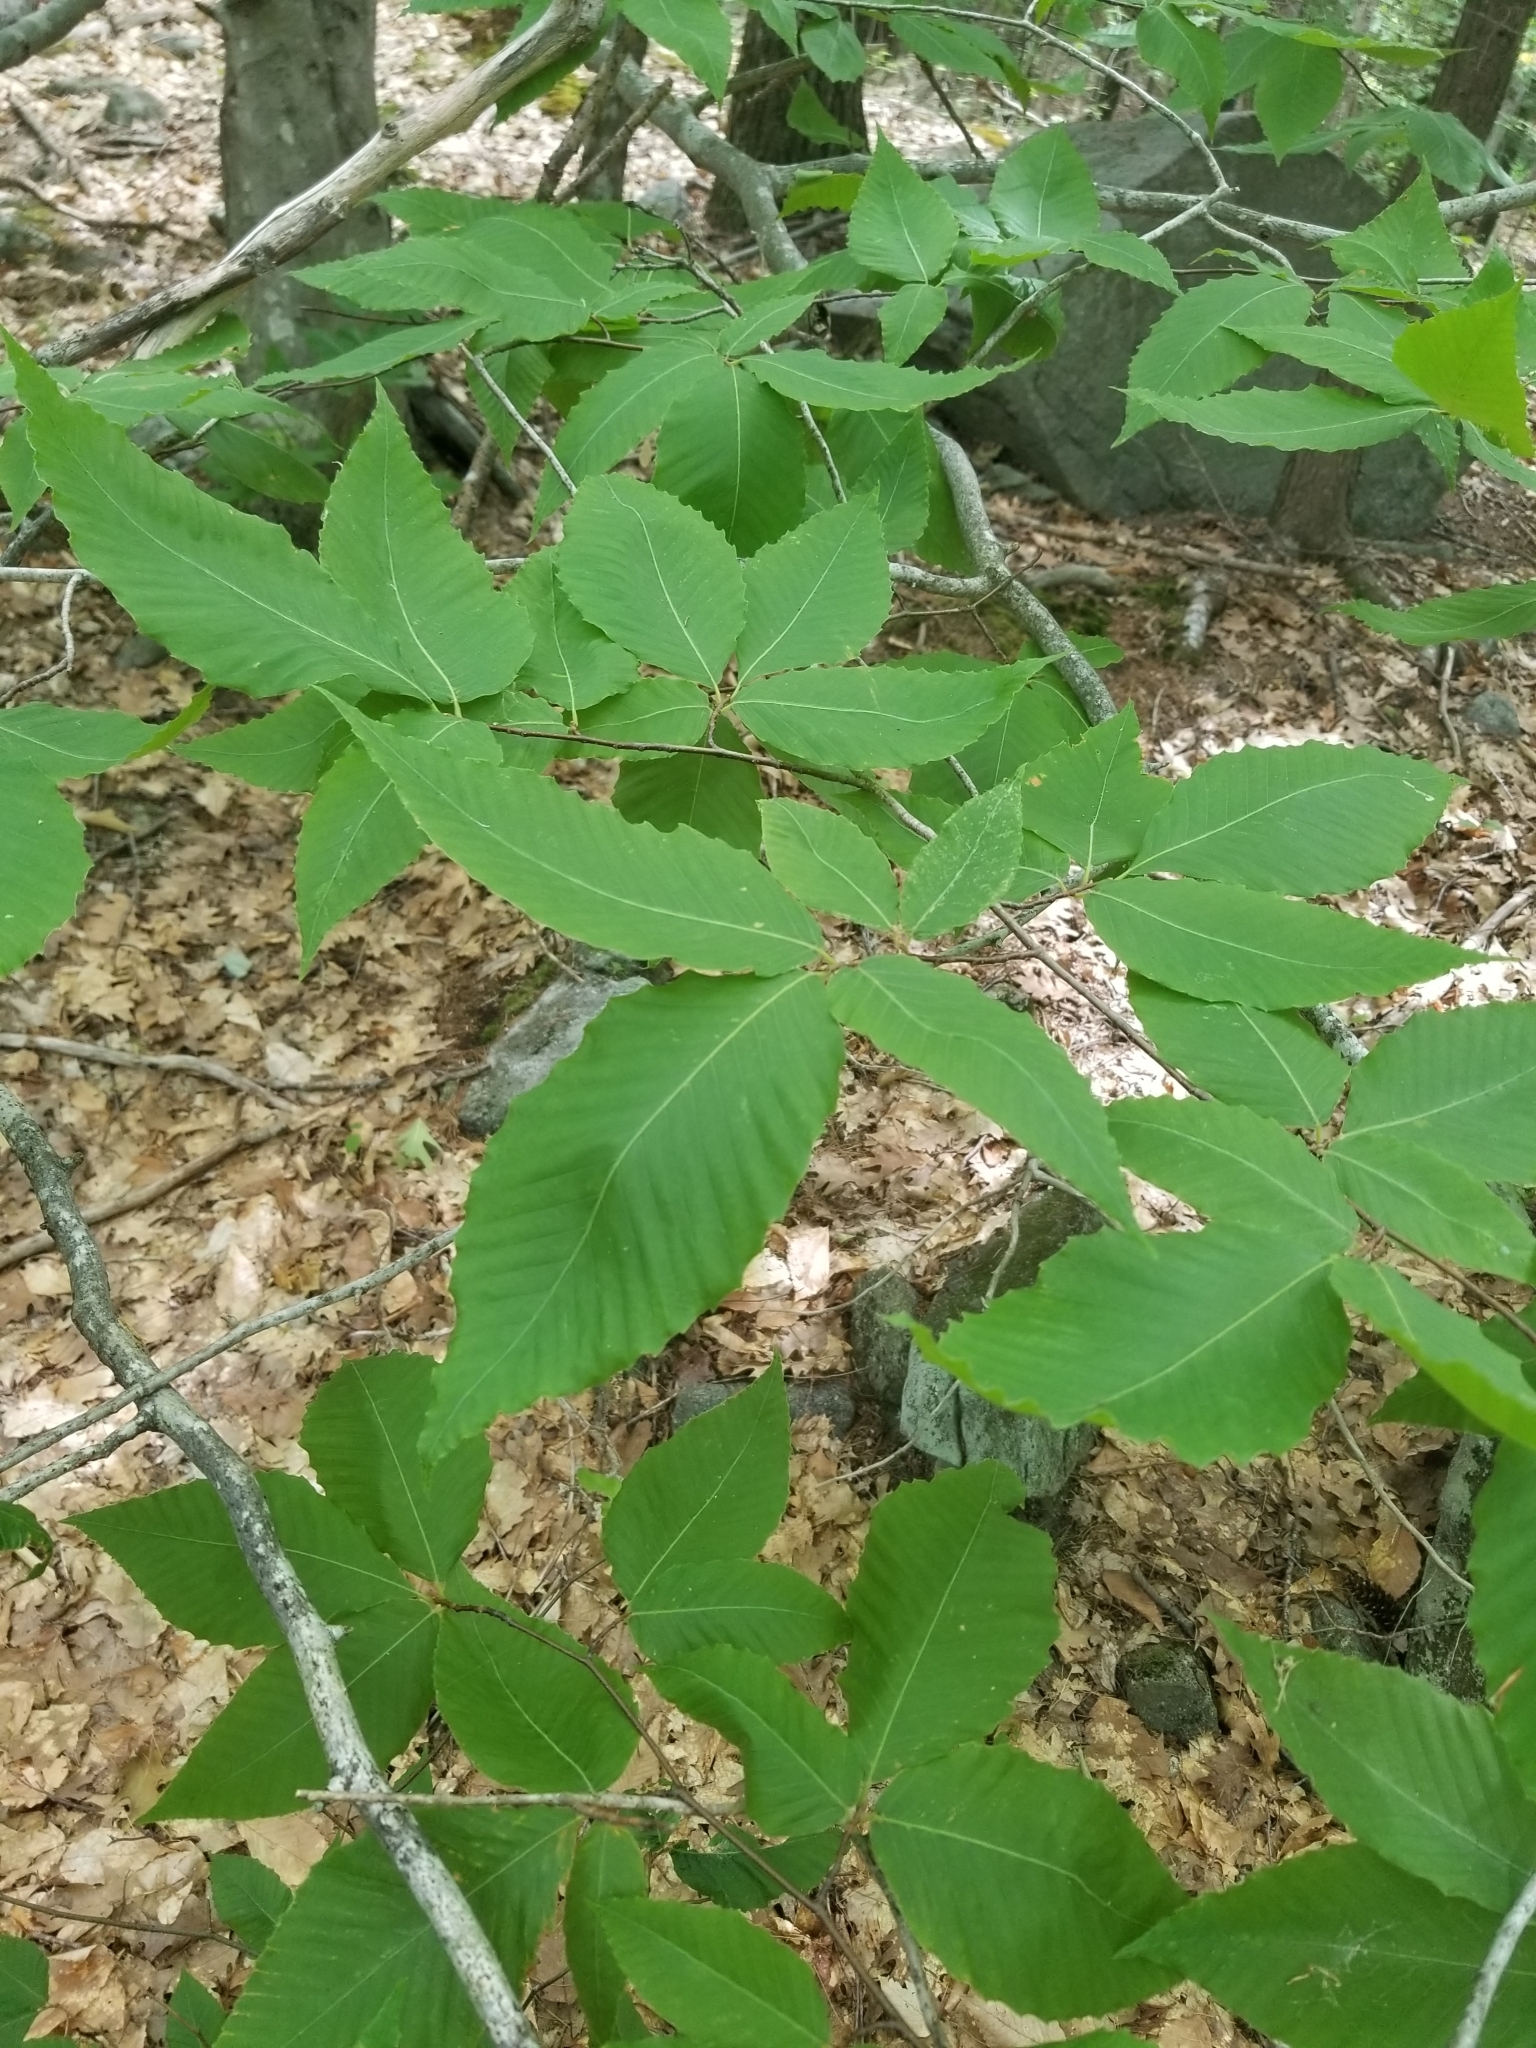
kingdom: Plantae
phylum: Tracheophyta
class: Magnoliopsida
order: Fagales
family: Fagaceae
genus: Fagus
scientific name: Fagus grandifolia
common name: American beech
